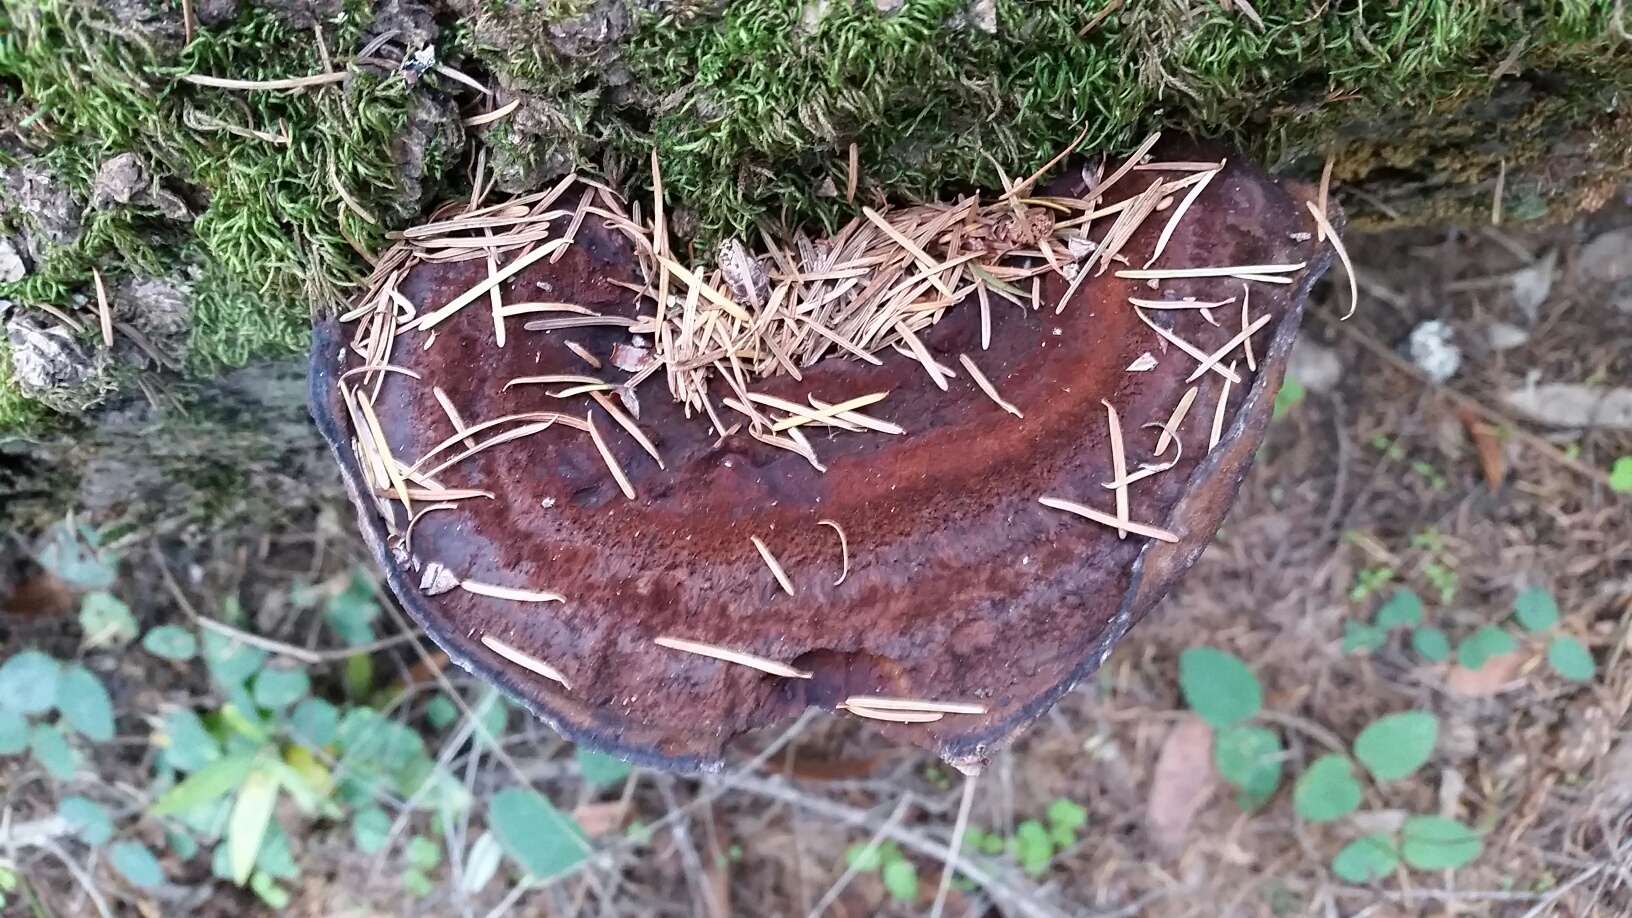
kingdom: Fungi
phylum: Basidiomycota
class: Agaricomycetes
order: Hymenochaetales
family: Hymenochaetaceae
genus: Porodaedalea
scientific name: Porodaedalea pini
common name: Pine bracket
